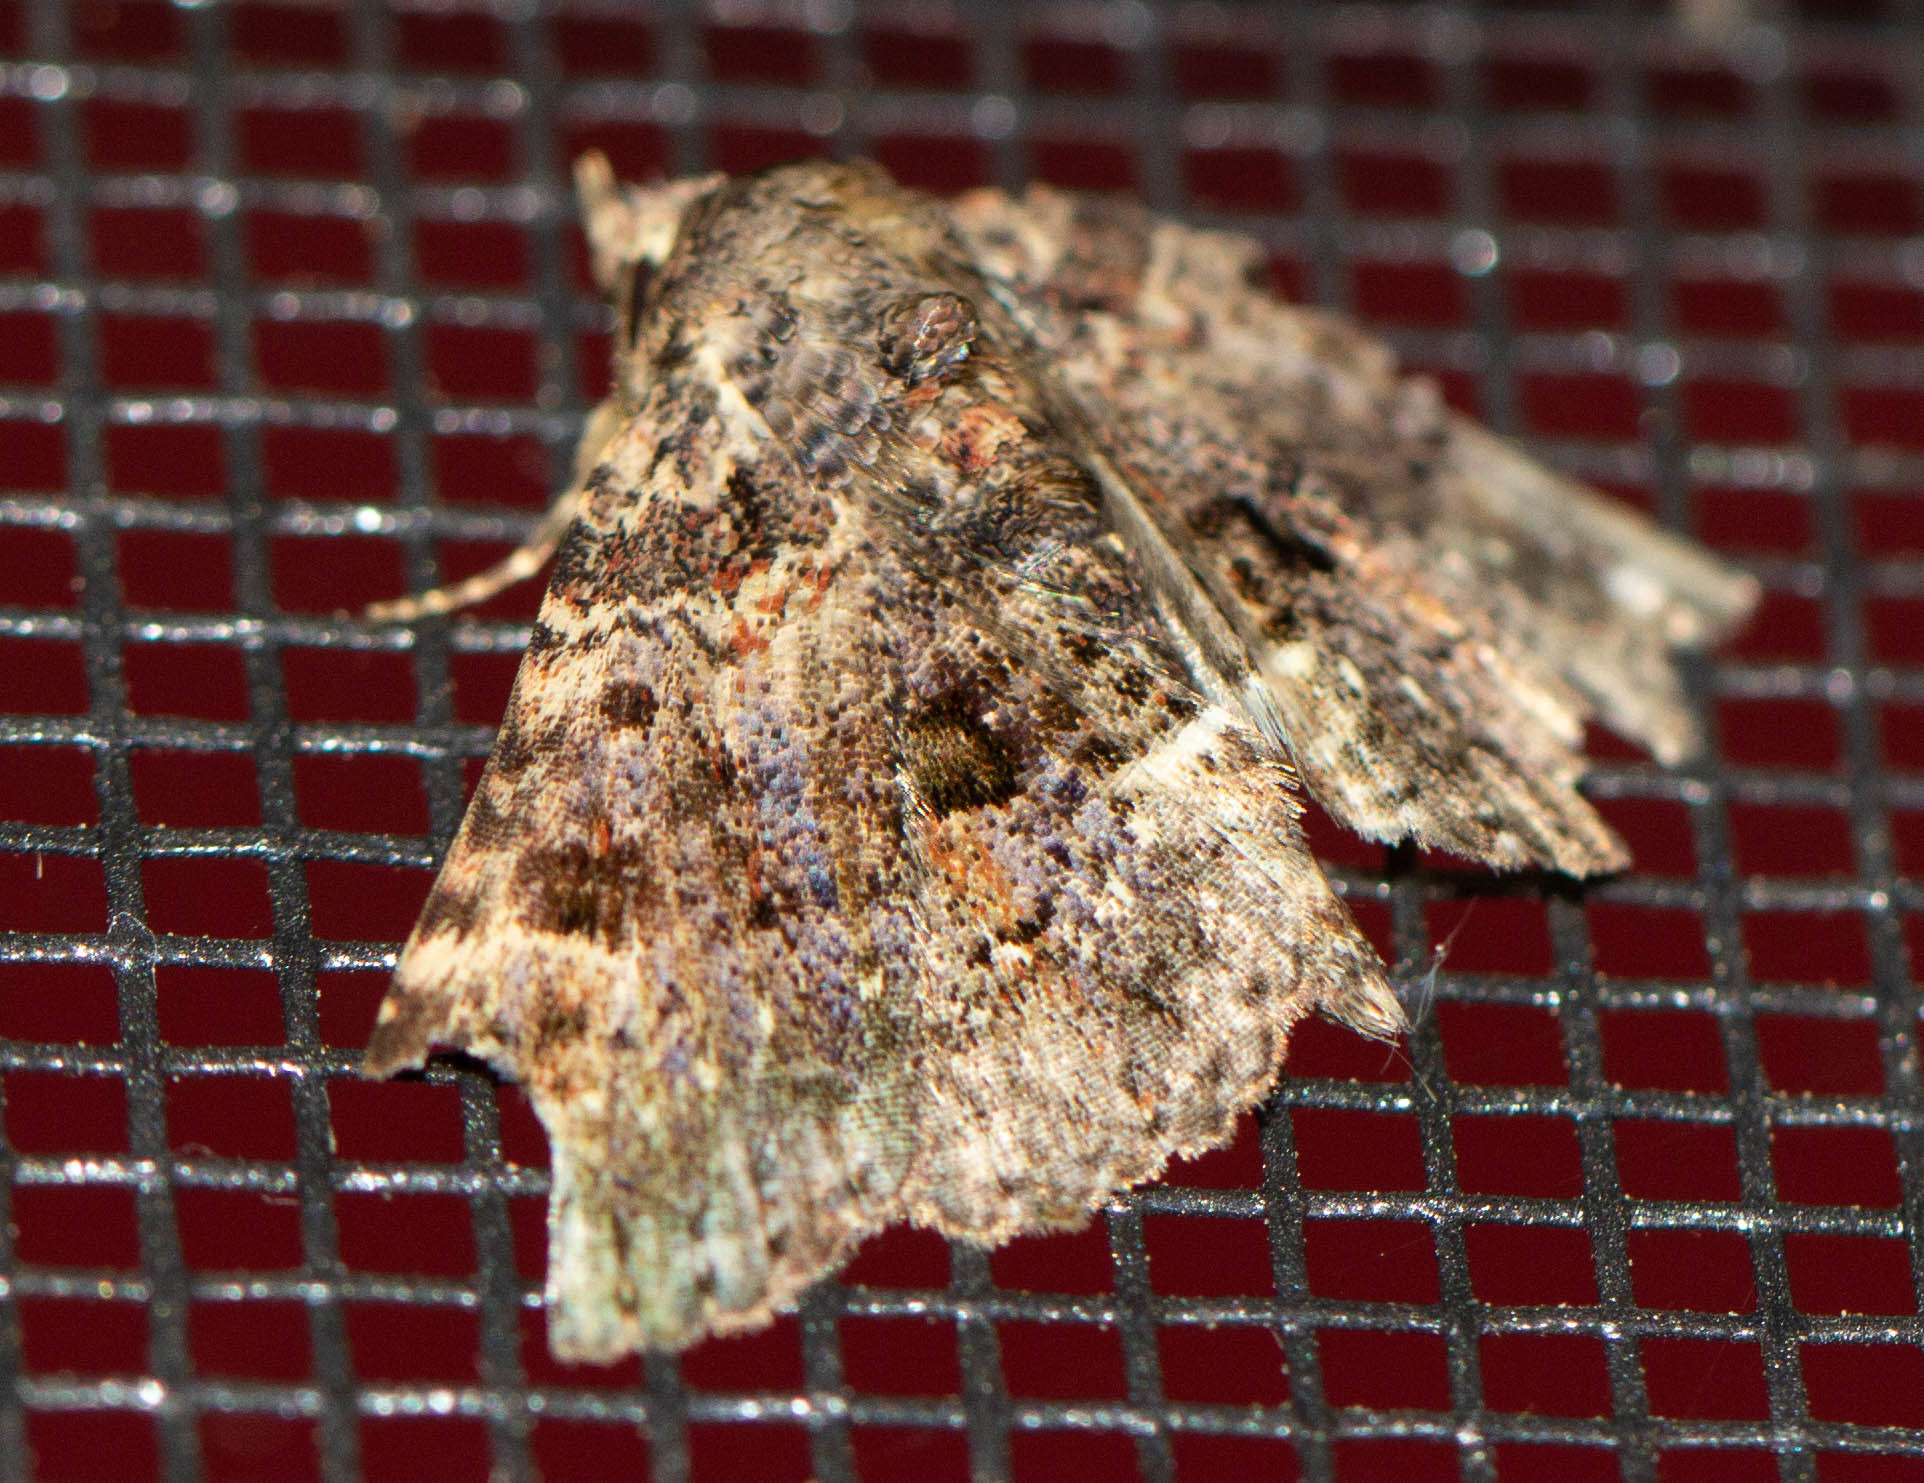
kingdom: Animalia
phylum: Arthropoda
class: Insecta
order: Lepidoptera
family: Erebidae
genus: Metalectra
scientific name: Metalectra discalis
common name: Common fungus moth
